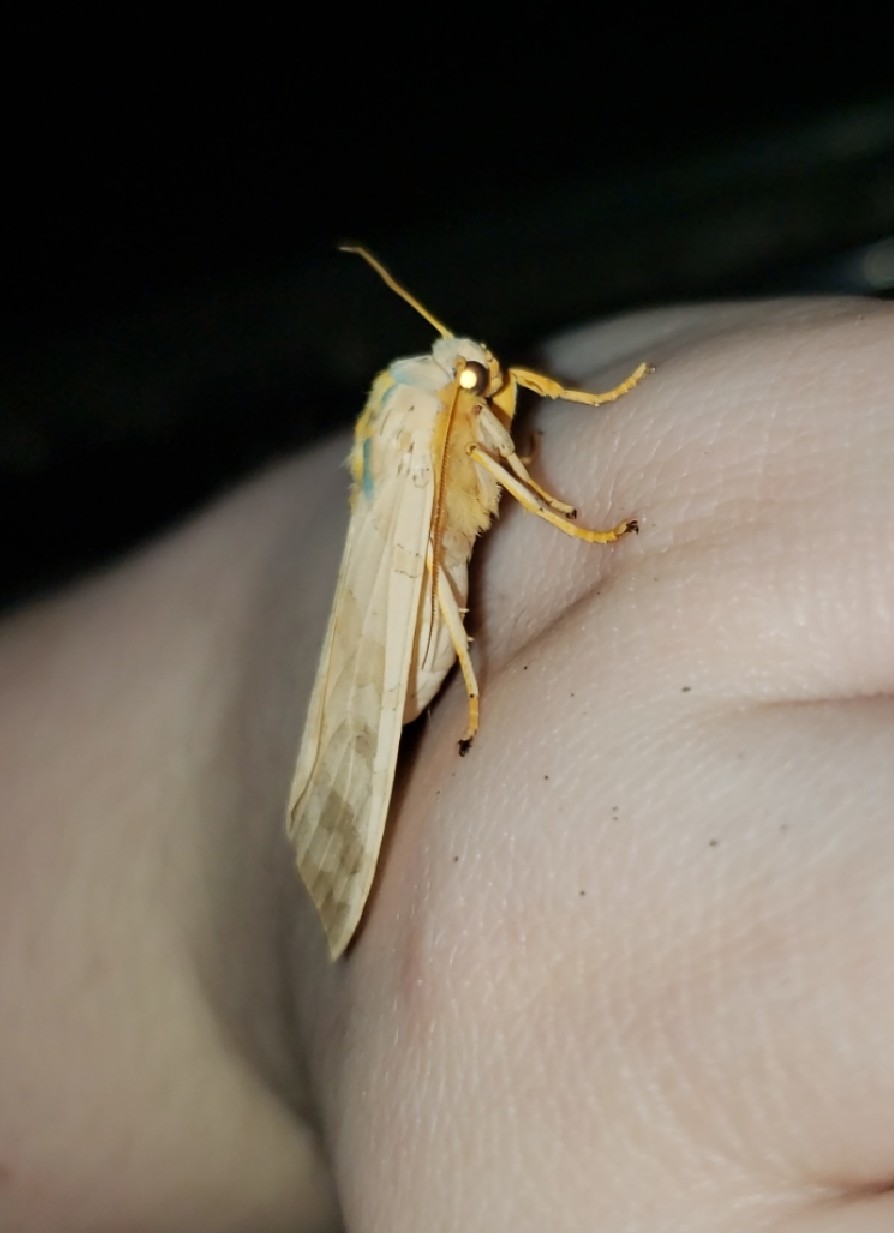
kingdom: Animalia
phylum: Arthropoda
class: Insecta
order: Lepidoptera
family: Erebidae
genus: Halysidota
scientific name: Halysidota
